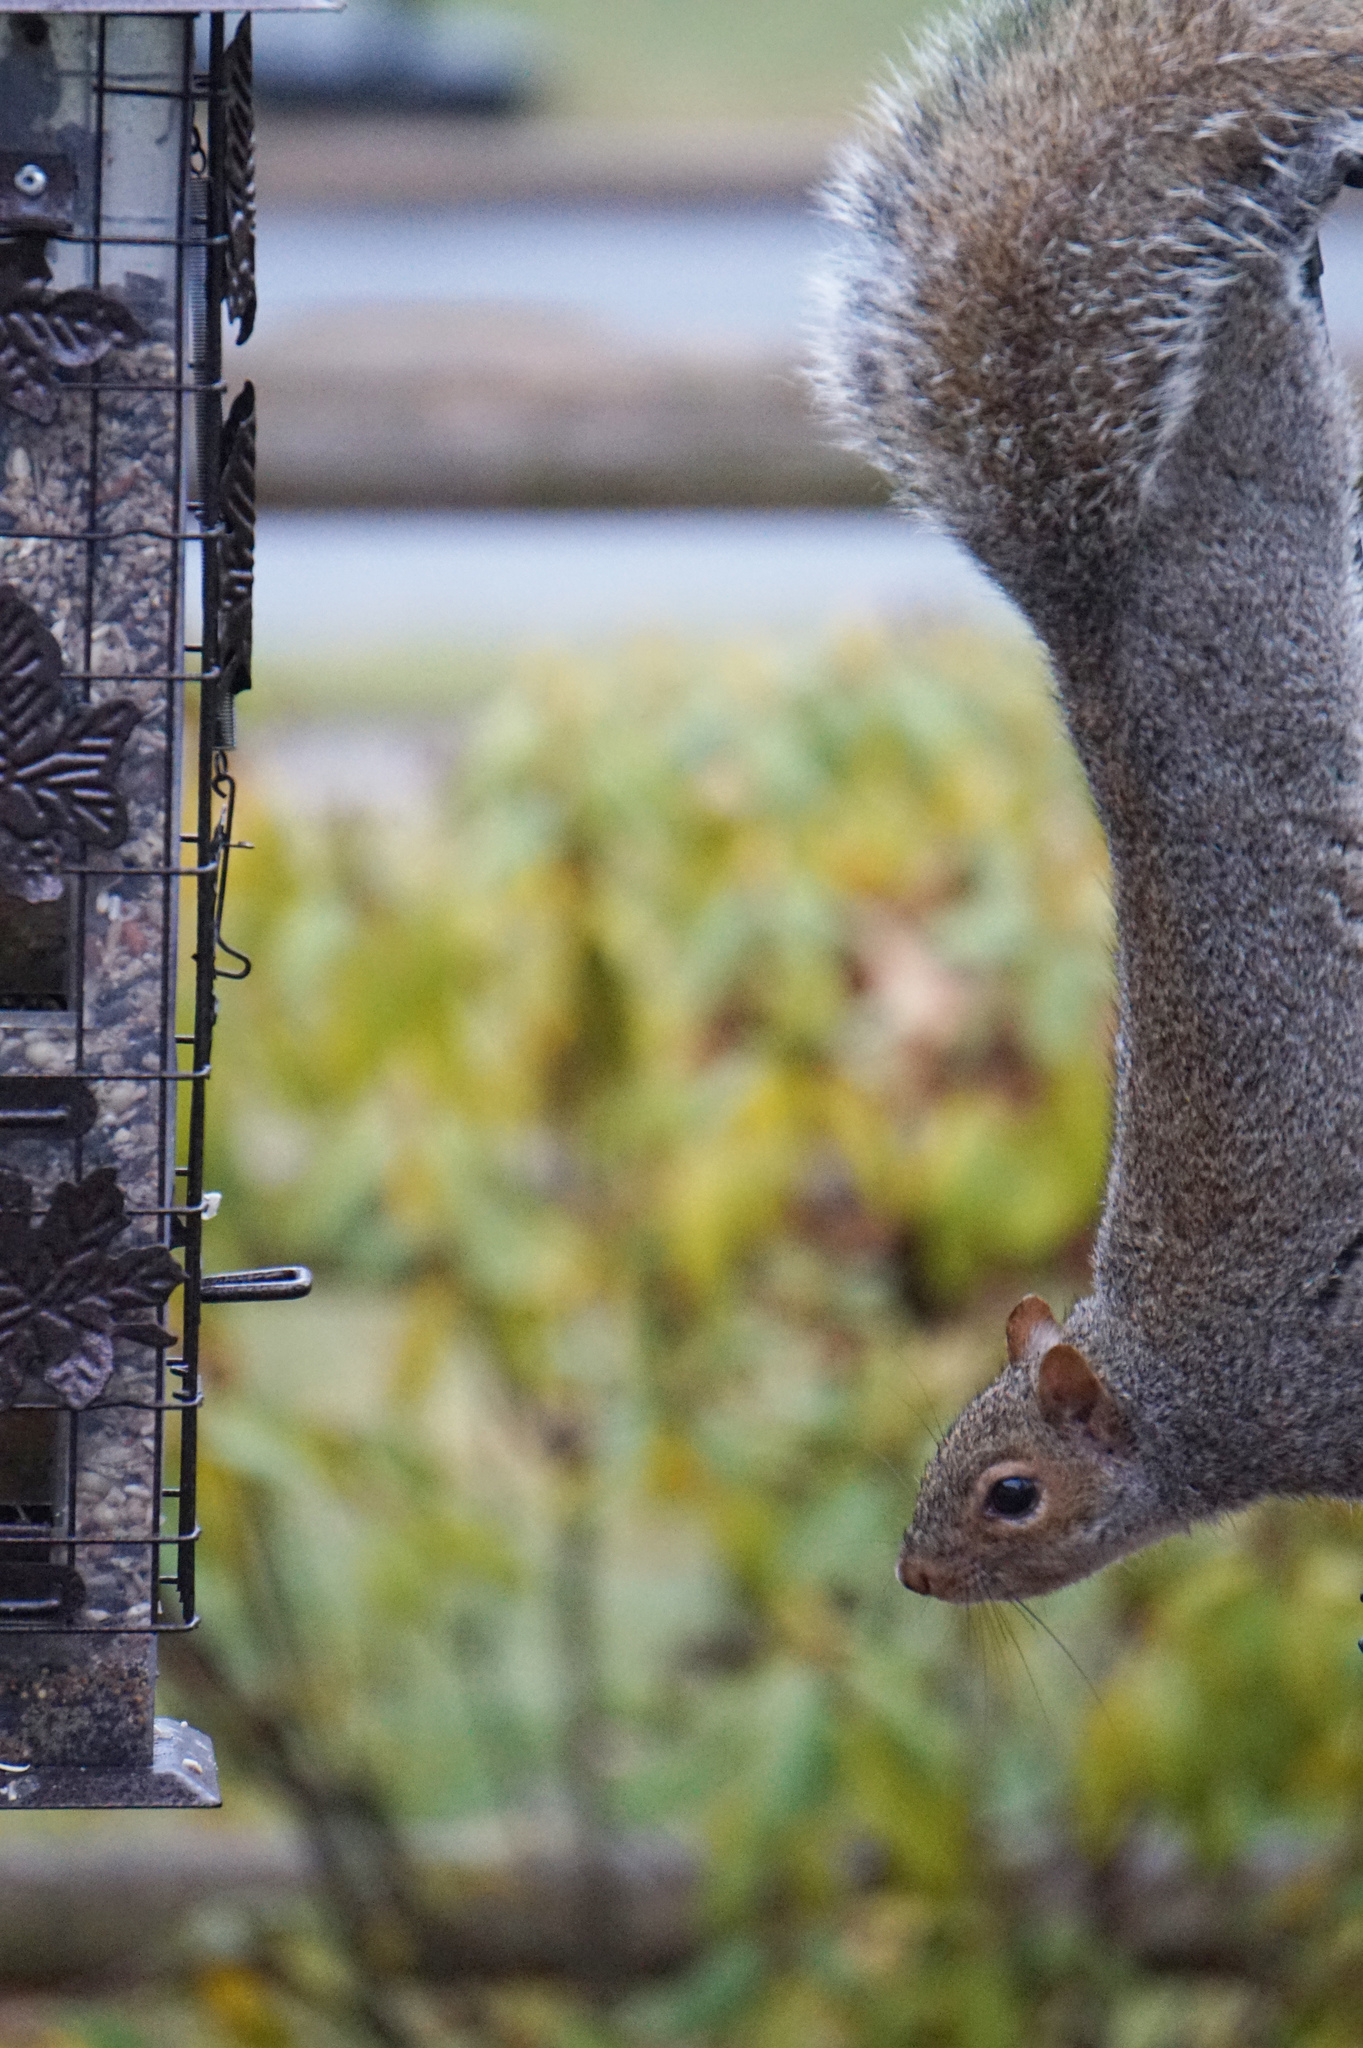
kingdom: Animalia
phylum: Chordata
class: Mammalia
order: Rodentia
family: Sciuridae
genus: Sciurus
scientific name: Sciurus carolinensis
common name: Eastern gray squirrel
